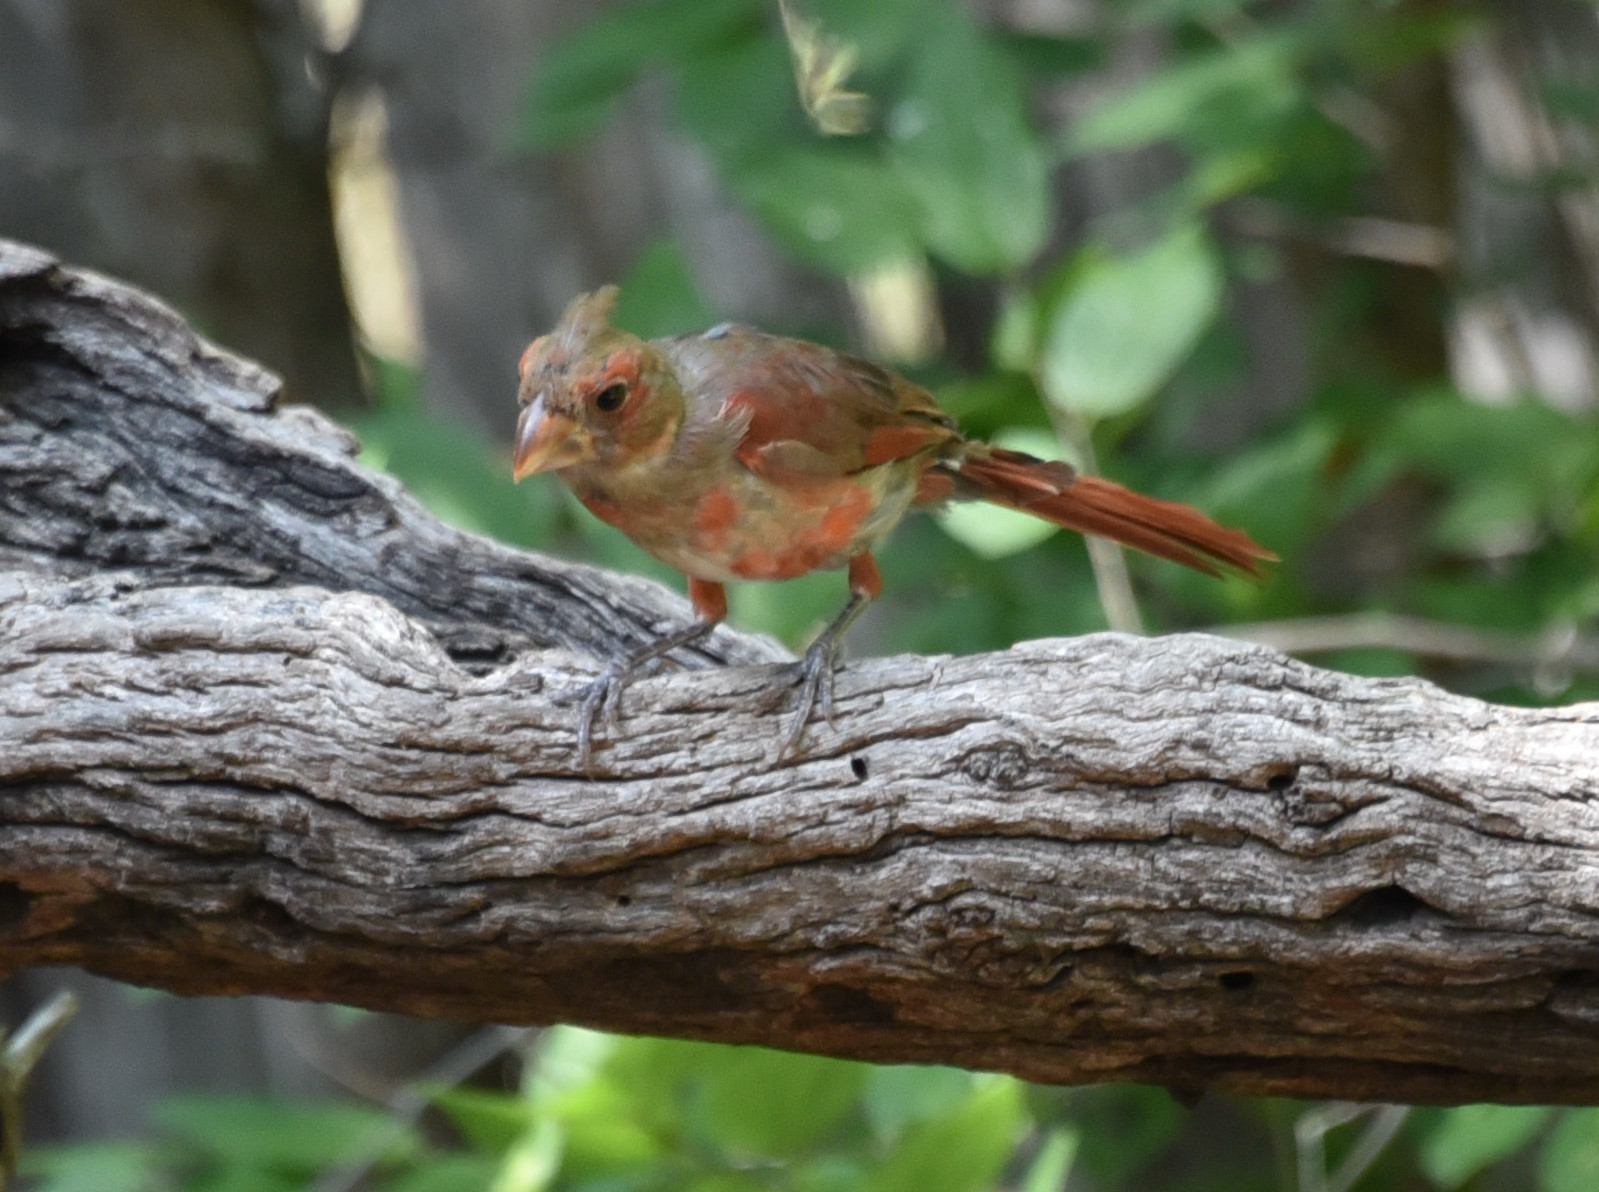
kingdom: Animalia
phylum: Chordata
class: Aves
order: Passeriformes
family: Cardinalidae
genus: Cardinalis
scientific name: Cardinalis cardinalis
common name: Northern cardinal
